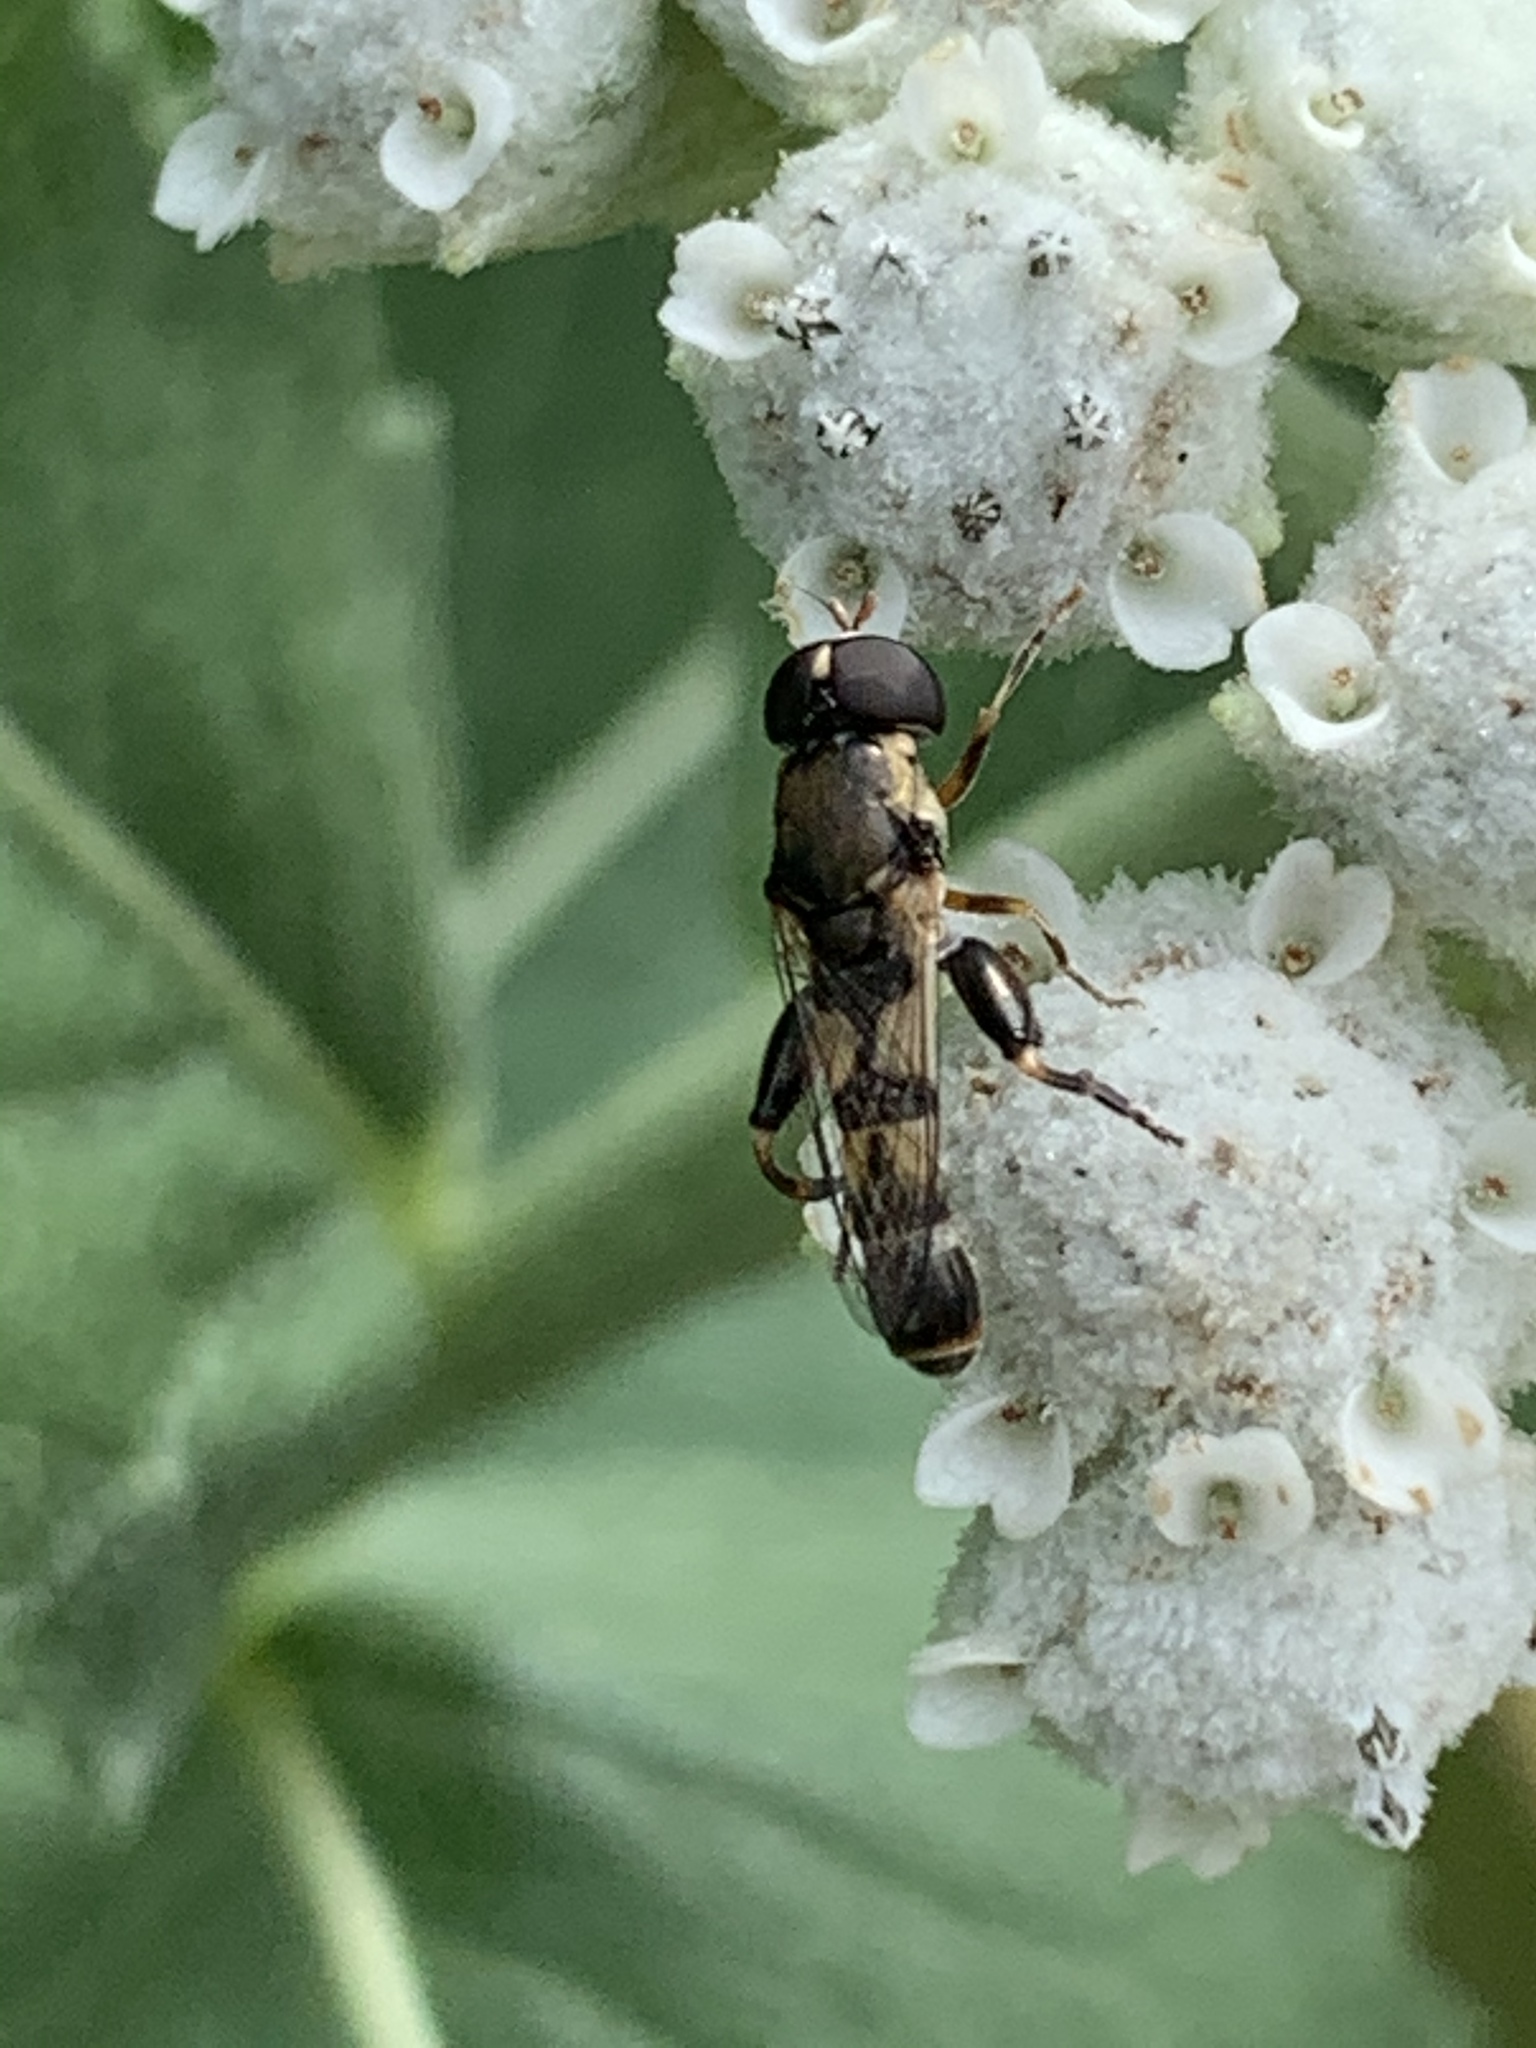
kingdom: Animalia
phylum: Arthropoda
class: Insecta
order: Diptera
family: Syrphidae
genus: Syritta
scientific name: Syritta pipiens
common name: Hover fly
